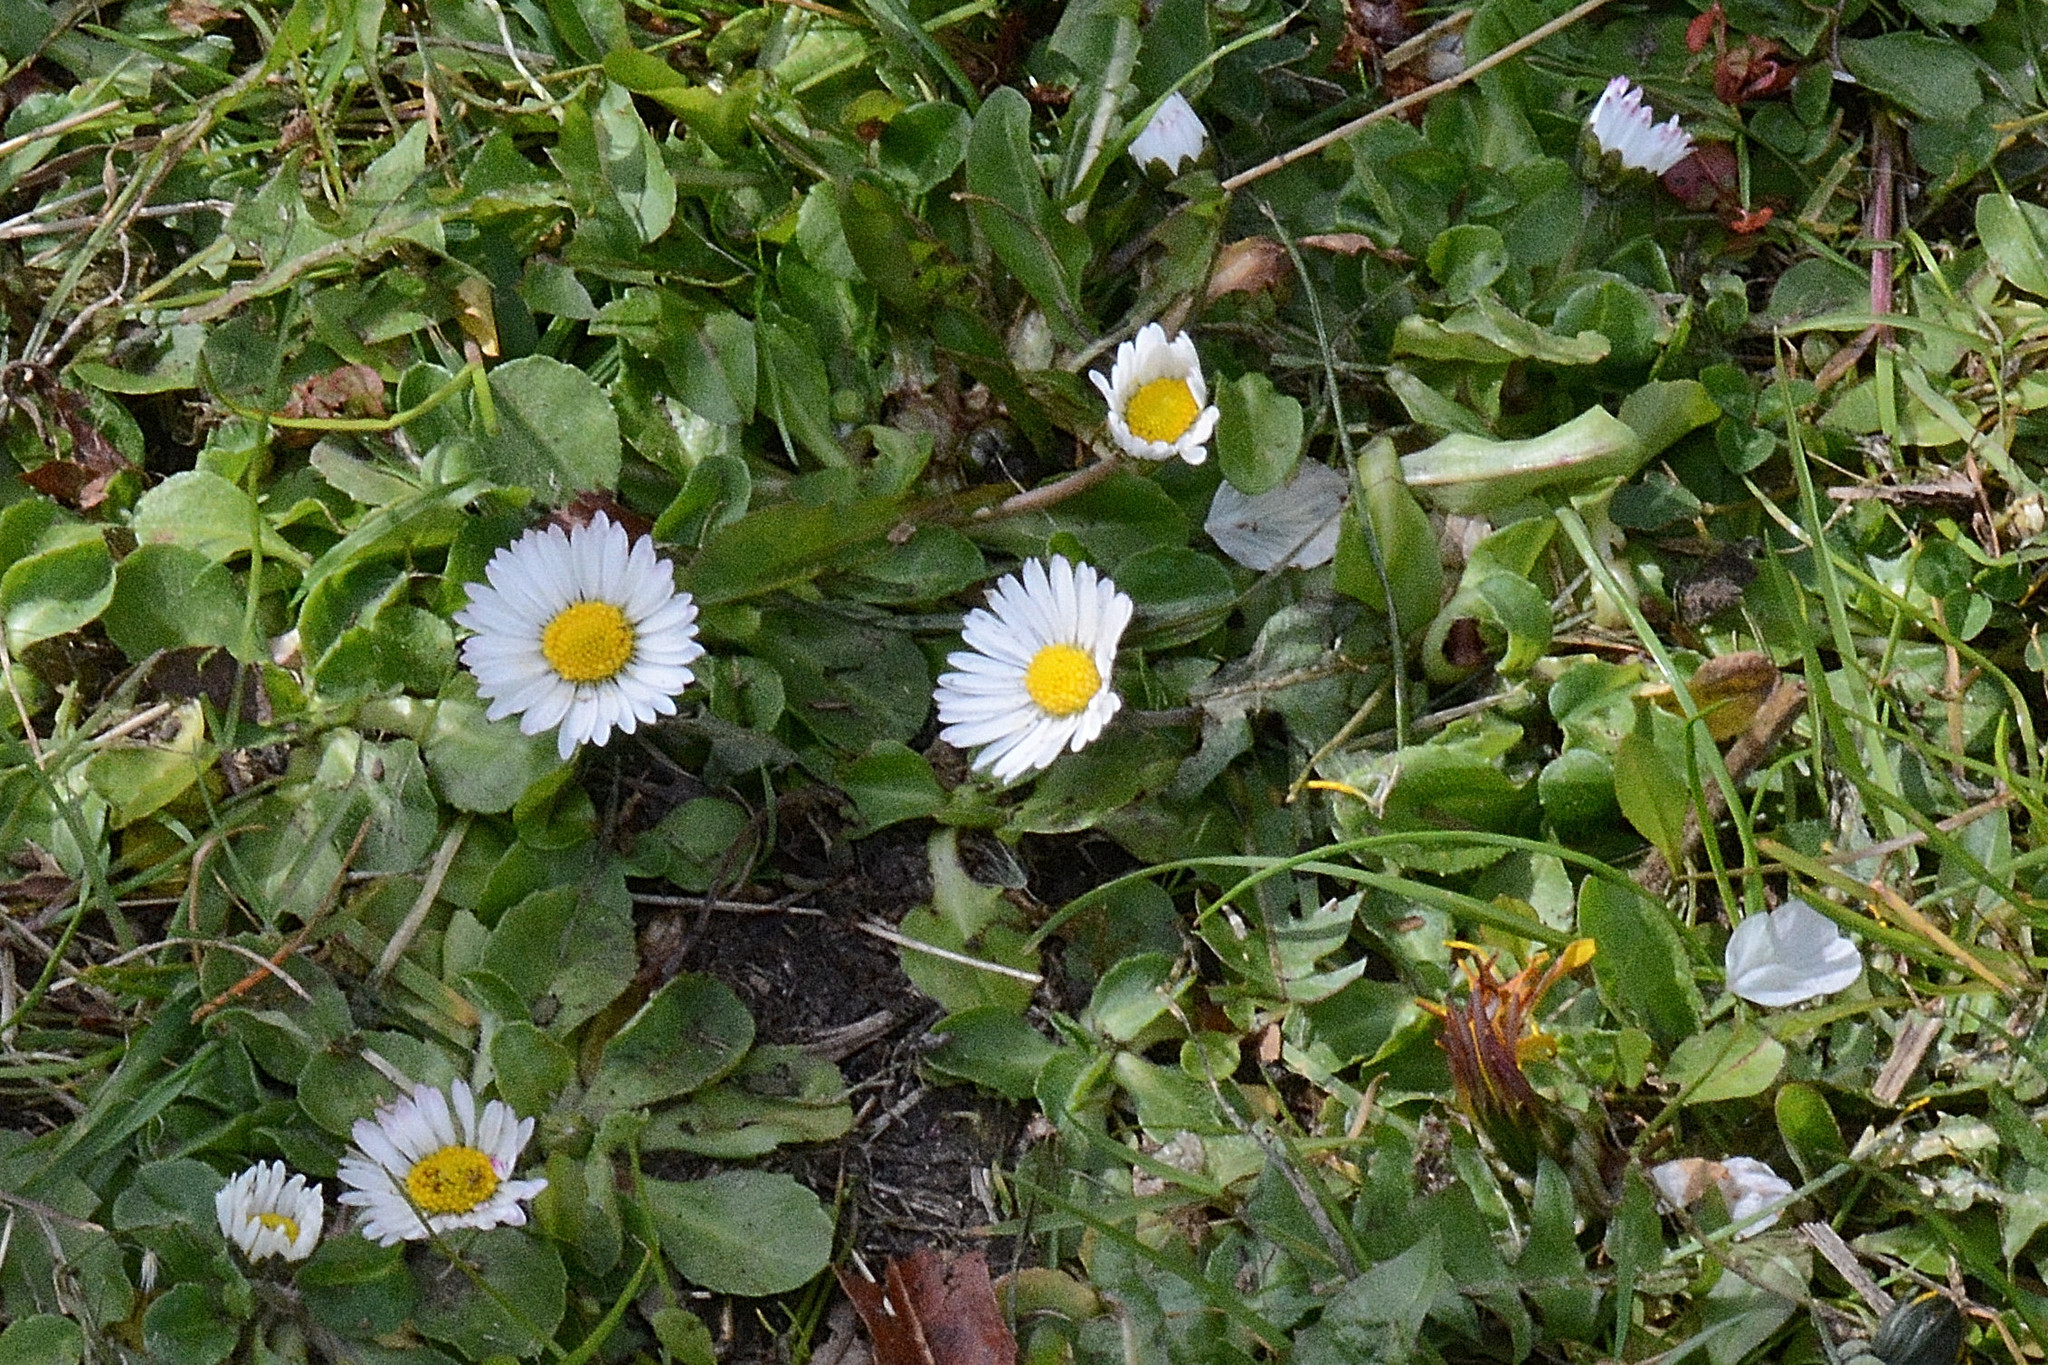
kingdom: Plantae
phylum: Tracheophyta
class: Magnoliopsida
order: Asterales
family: Asteraceae
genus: Bellis
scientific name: Bellis perennis
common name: Lawndaisy
